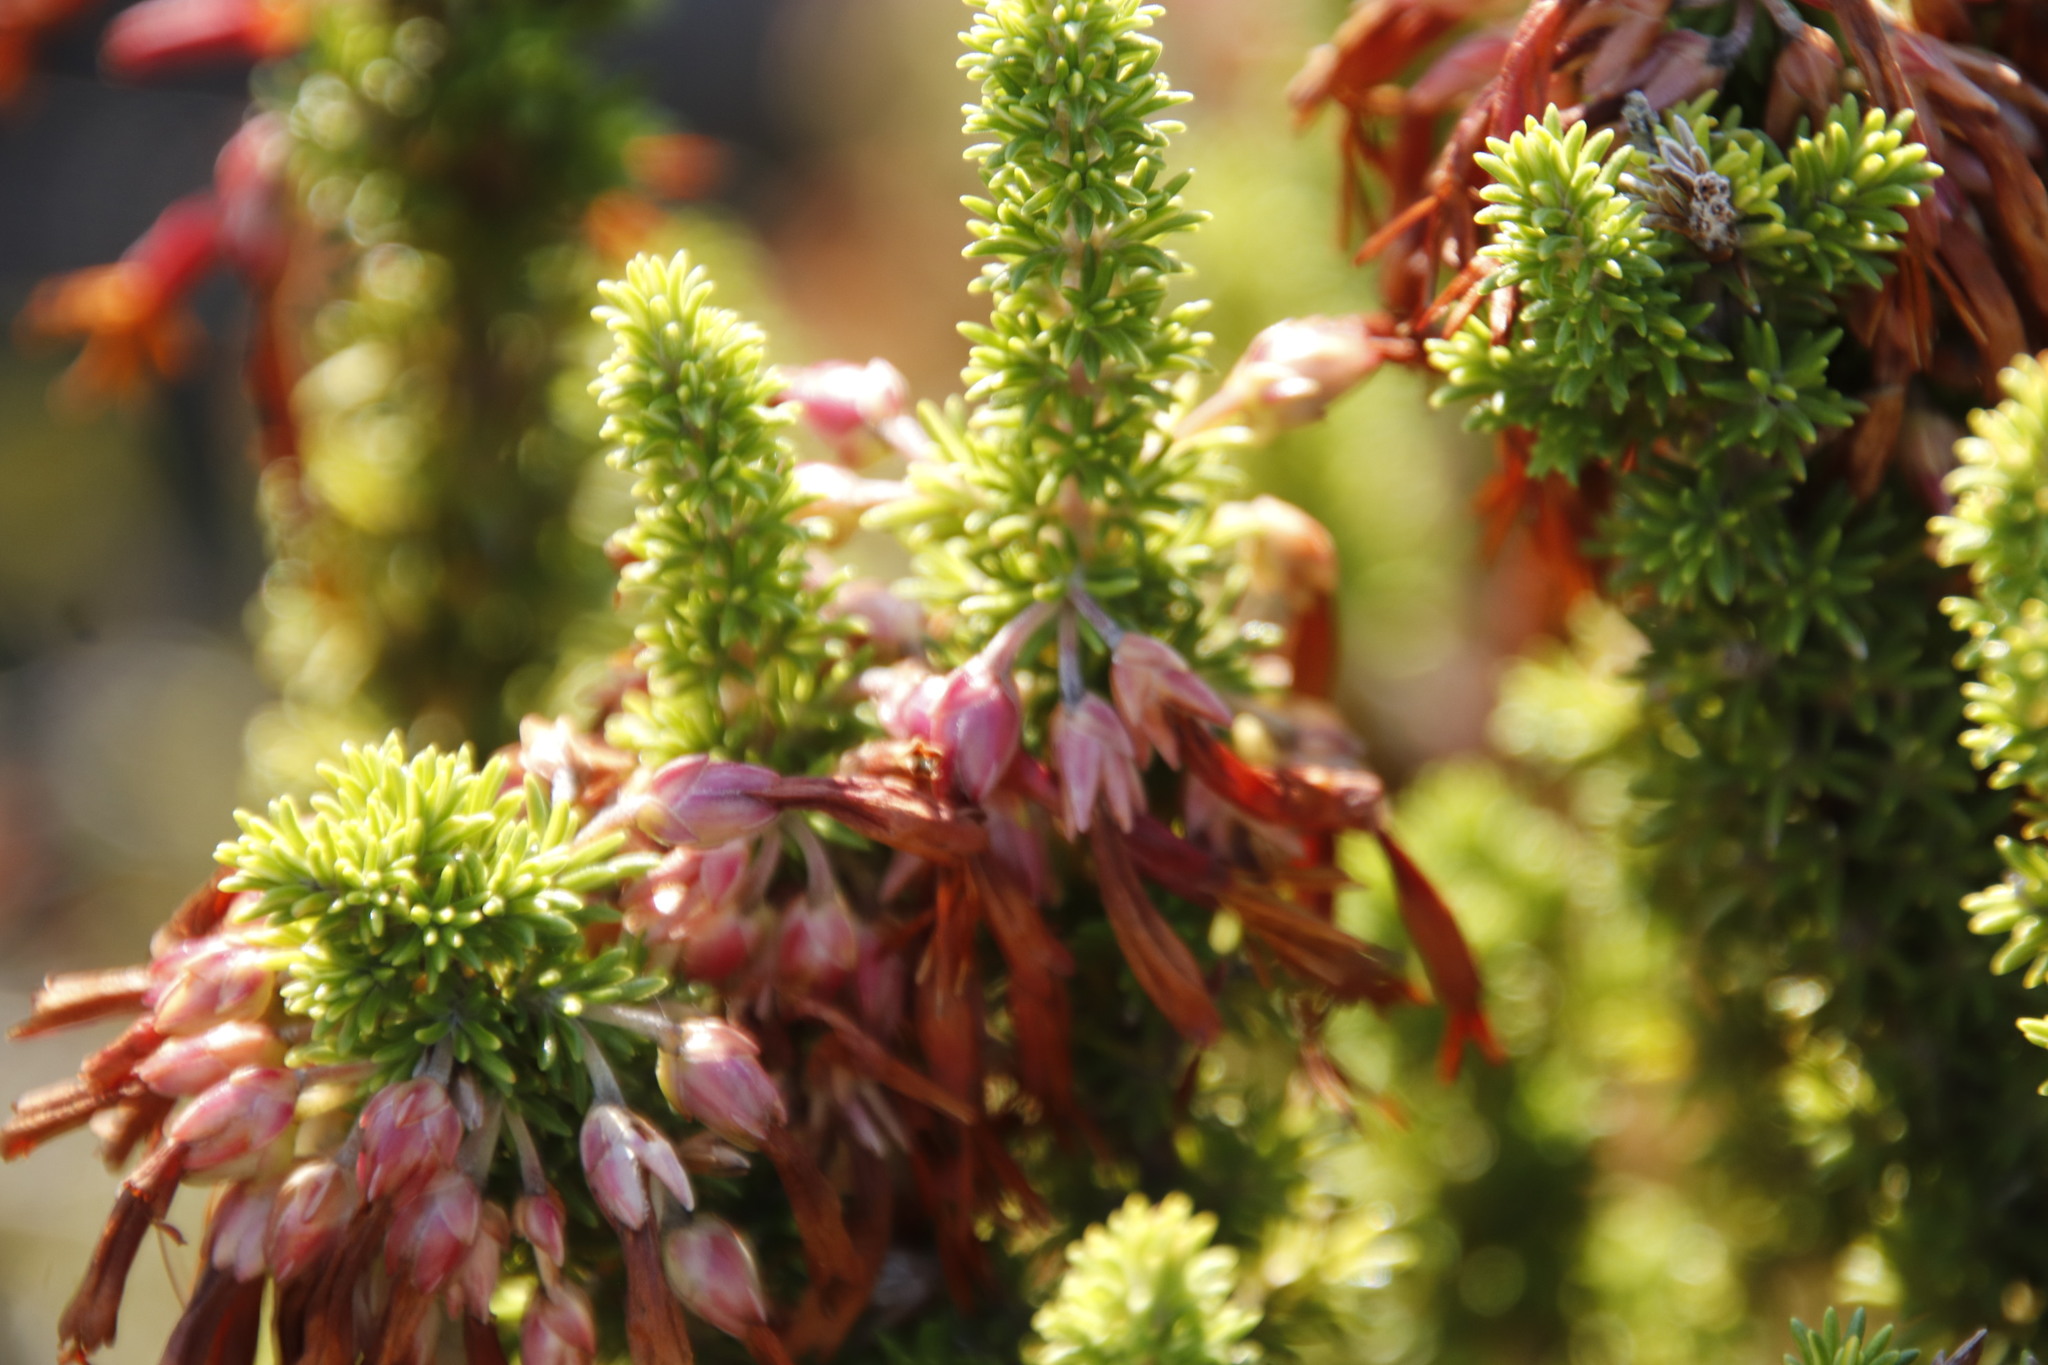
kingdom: Plantae
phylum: Tracheophyta
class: Magnoliopsida
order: Ericales
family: Ericaceae
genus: Erica
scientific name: Erica coccinea
